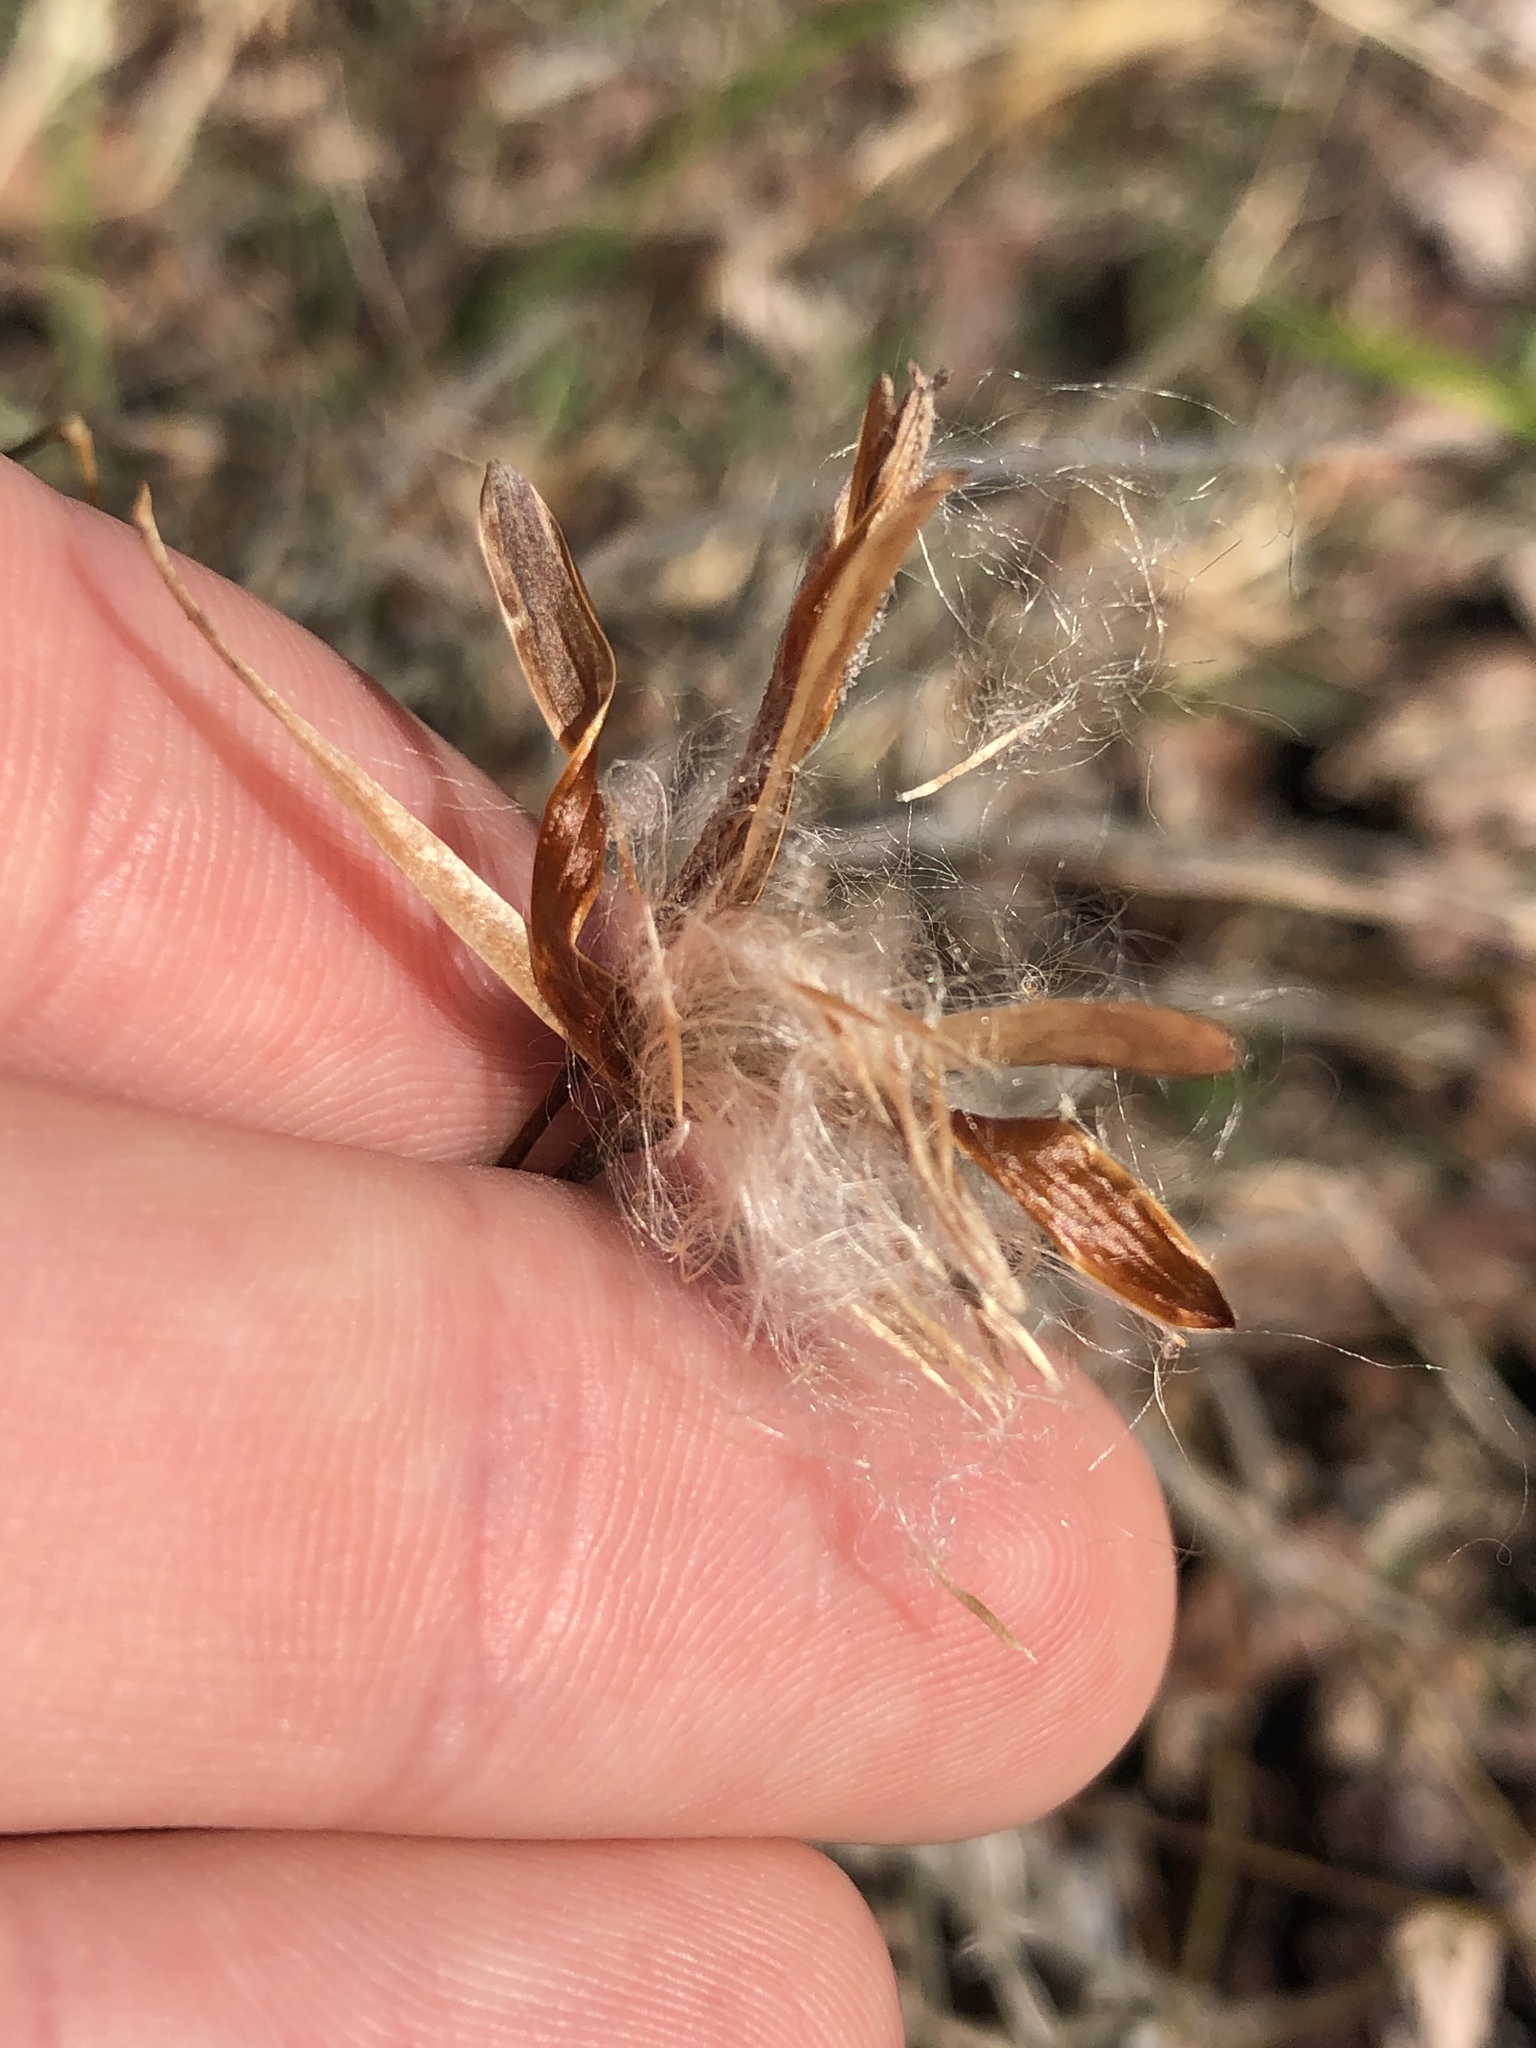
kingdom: Plantae
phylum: Tracheophyta
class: Liliopsida
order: Poales
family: Bromeliaceae
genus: Tillandsia
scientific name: Tillandsia recurvata
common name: Small ballmoss
